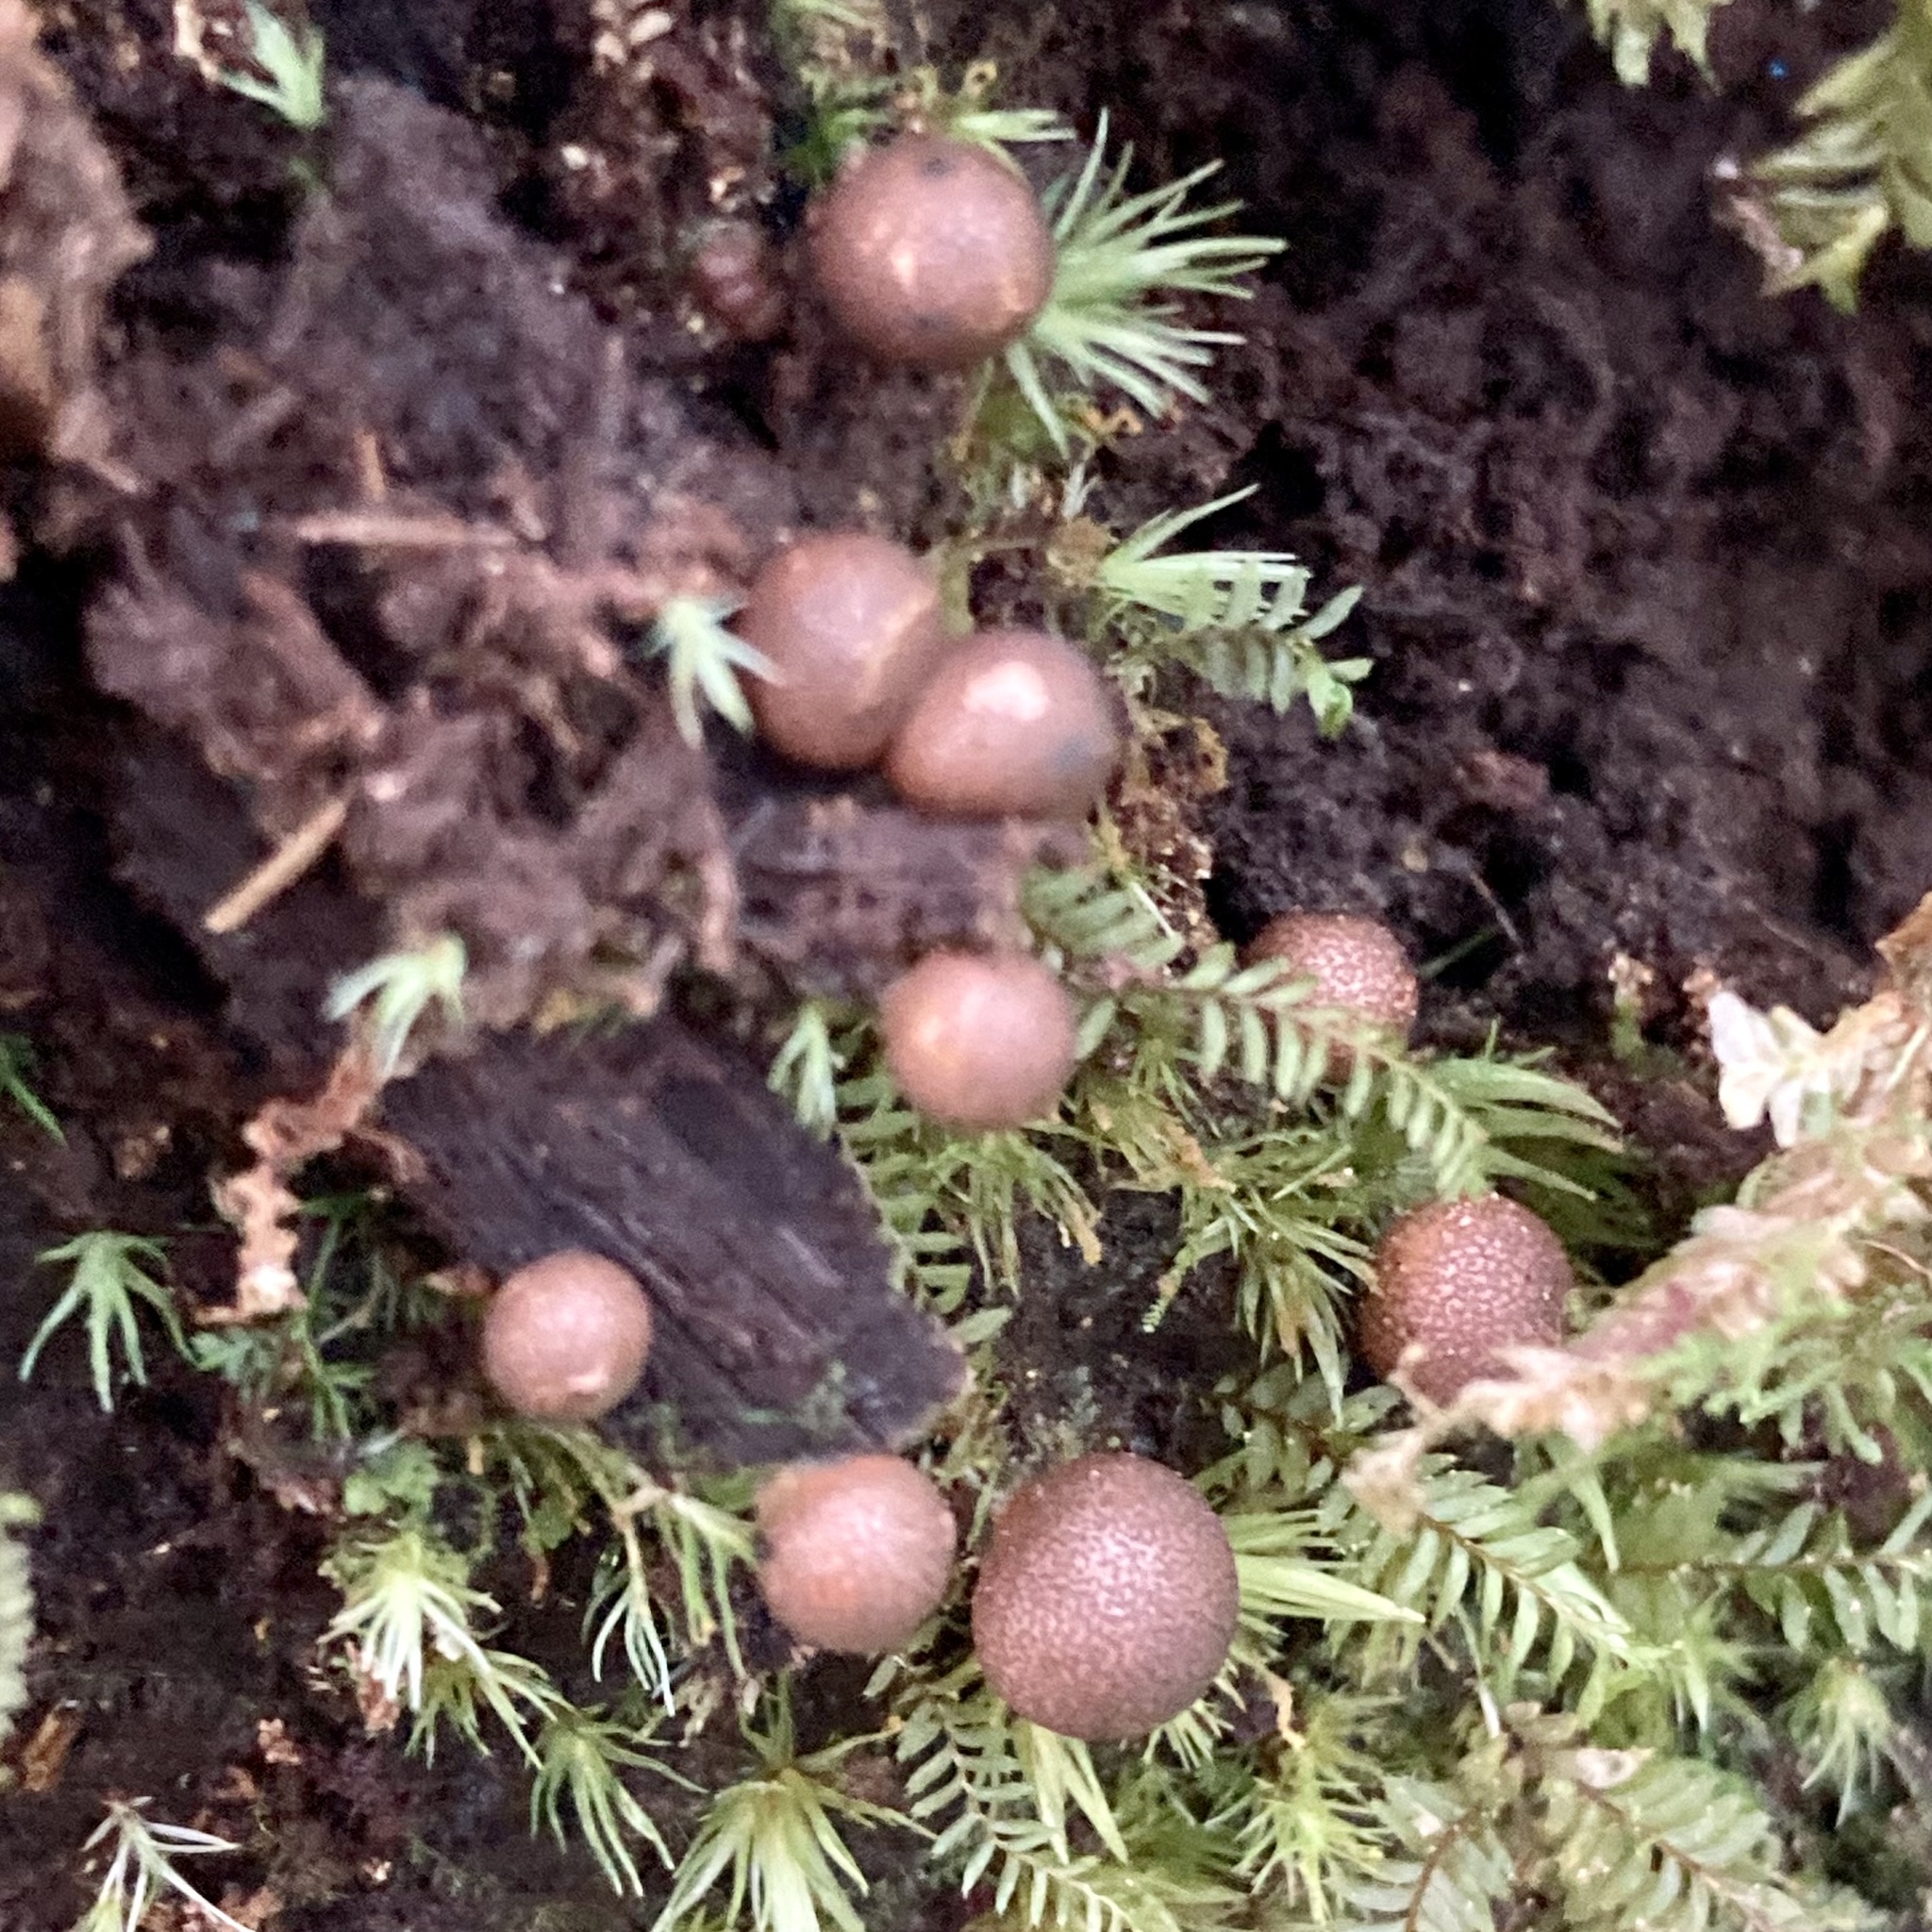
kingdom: Protozoa
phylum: Mycetozoa
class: Myxomycetes
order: Cribrariales
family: Tubiferaceae
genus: Lycogala
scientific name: Lycogala epidendrum
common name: Wolf's milk
